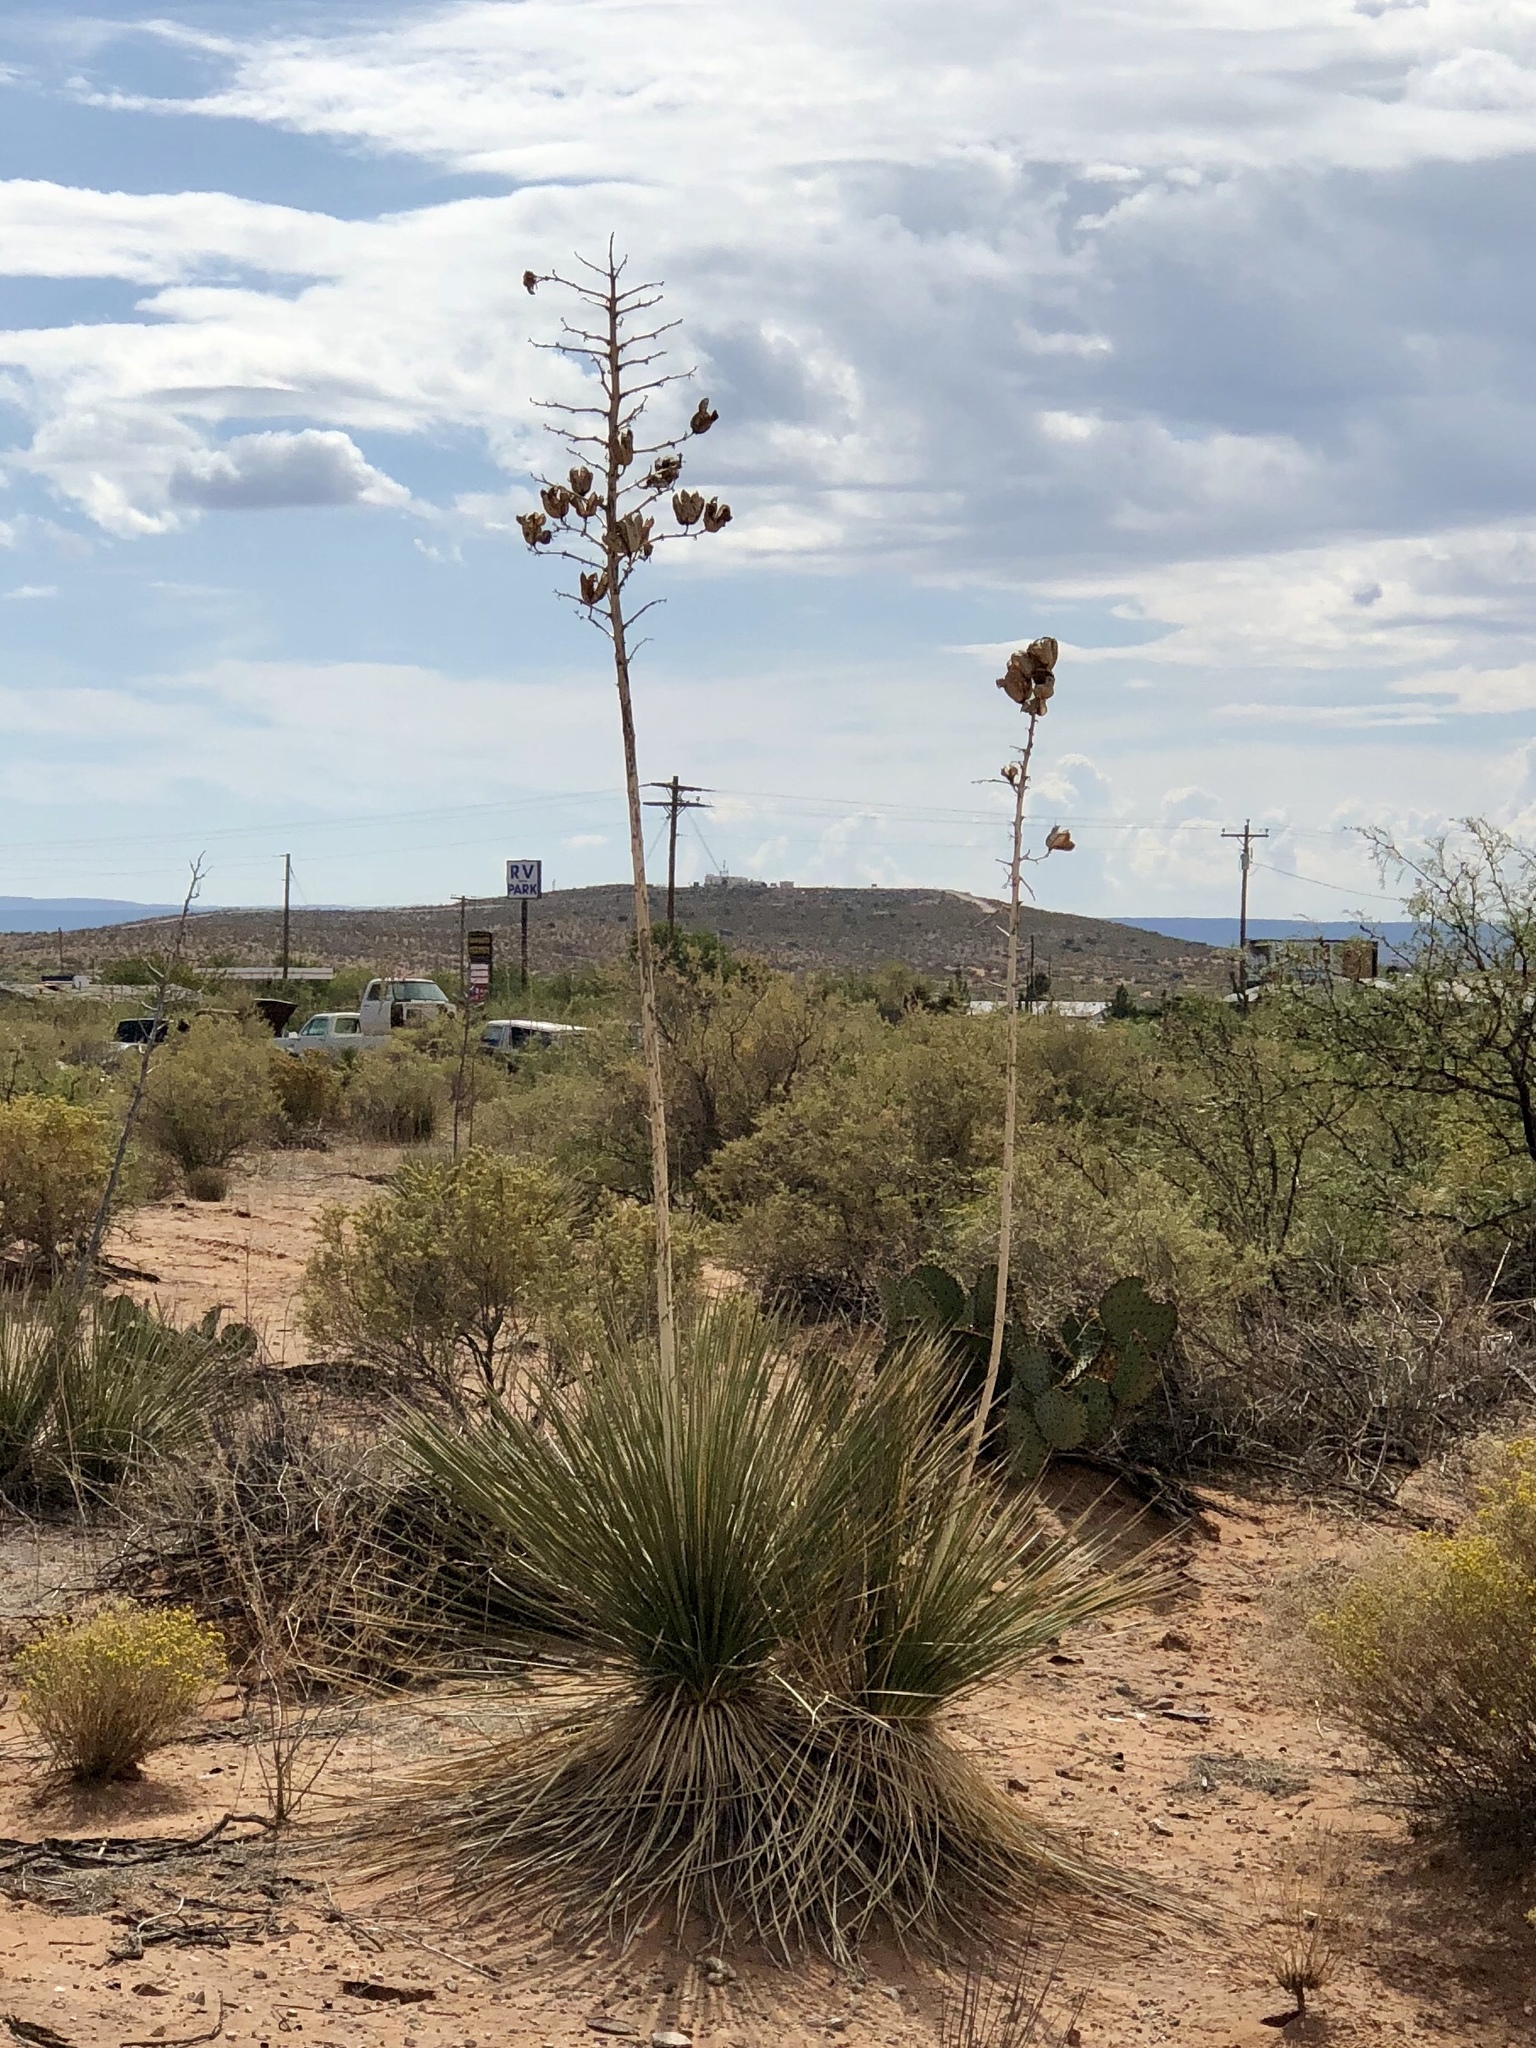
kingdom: Plantae
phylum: Tracheophyta
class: Liliopsida
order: Asparagales
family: Asparagaceae
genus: Yucca
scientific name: Yucca elata
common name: Palmella
